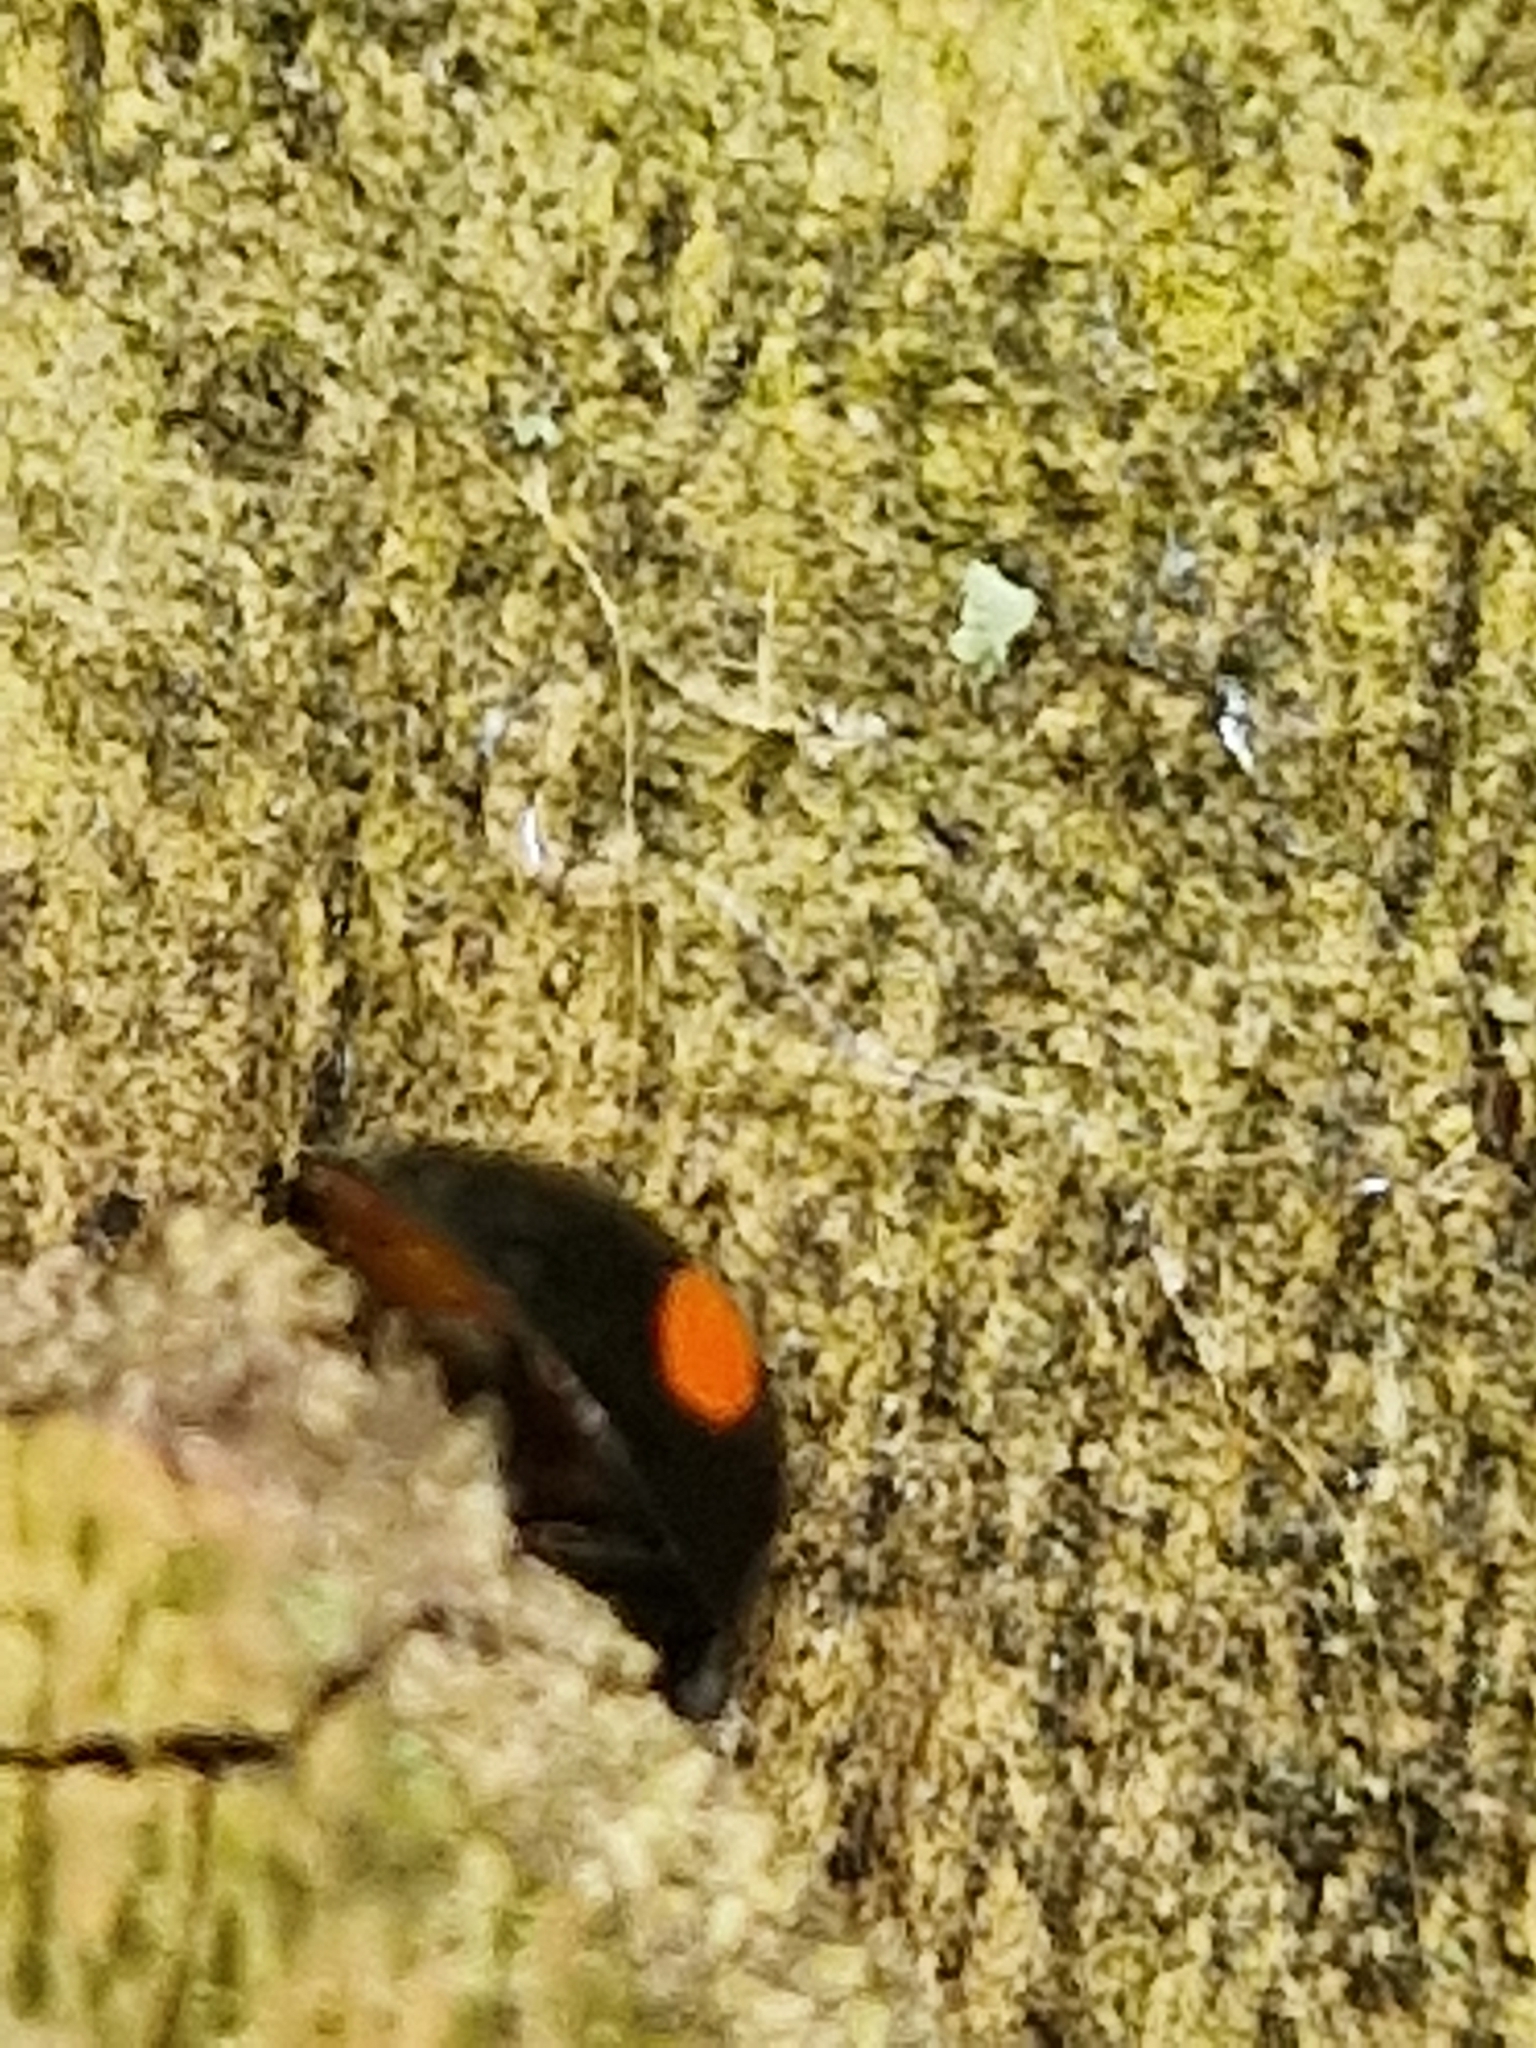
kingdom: Animalia
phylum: Arthropoda
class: Insecta
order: Coleoptera
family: Coccinellidae
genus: Chilocorus
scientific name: Chilocorus renipustulatus
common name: Kidney-spot ladybird
